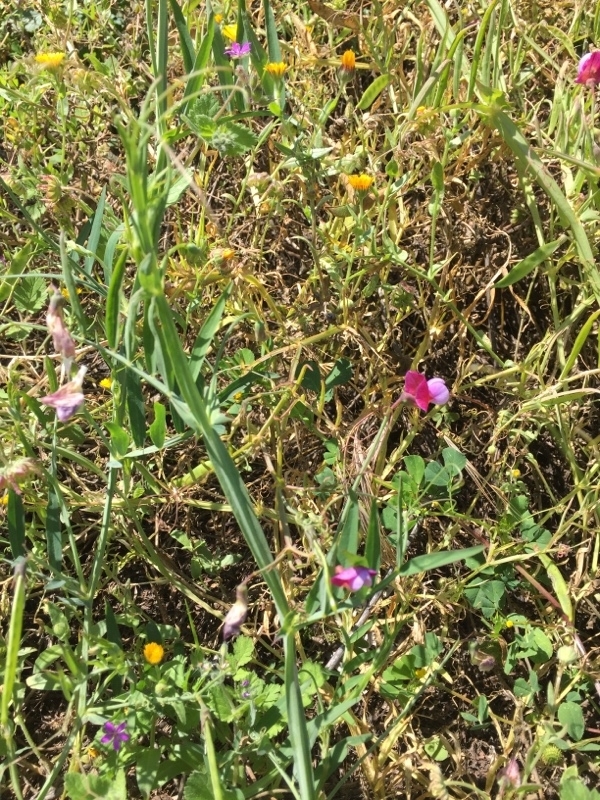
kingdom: Plantae
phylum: Tracheophyta
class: Magnoliopsida
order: Fabales
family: Fabaceae
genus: Lathyrus
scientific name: Lathyrus clymenum
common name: Spanish vetchling
